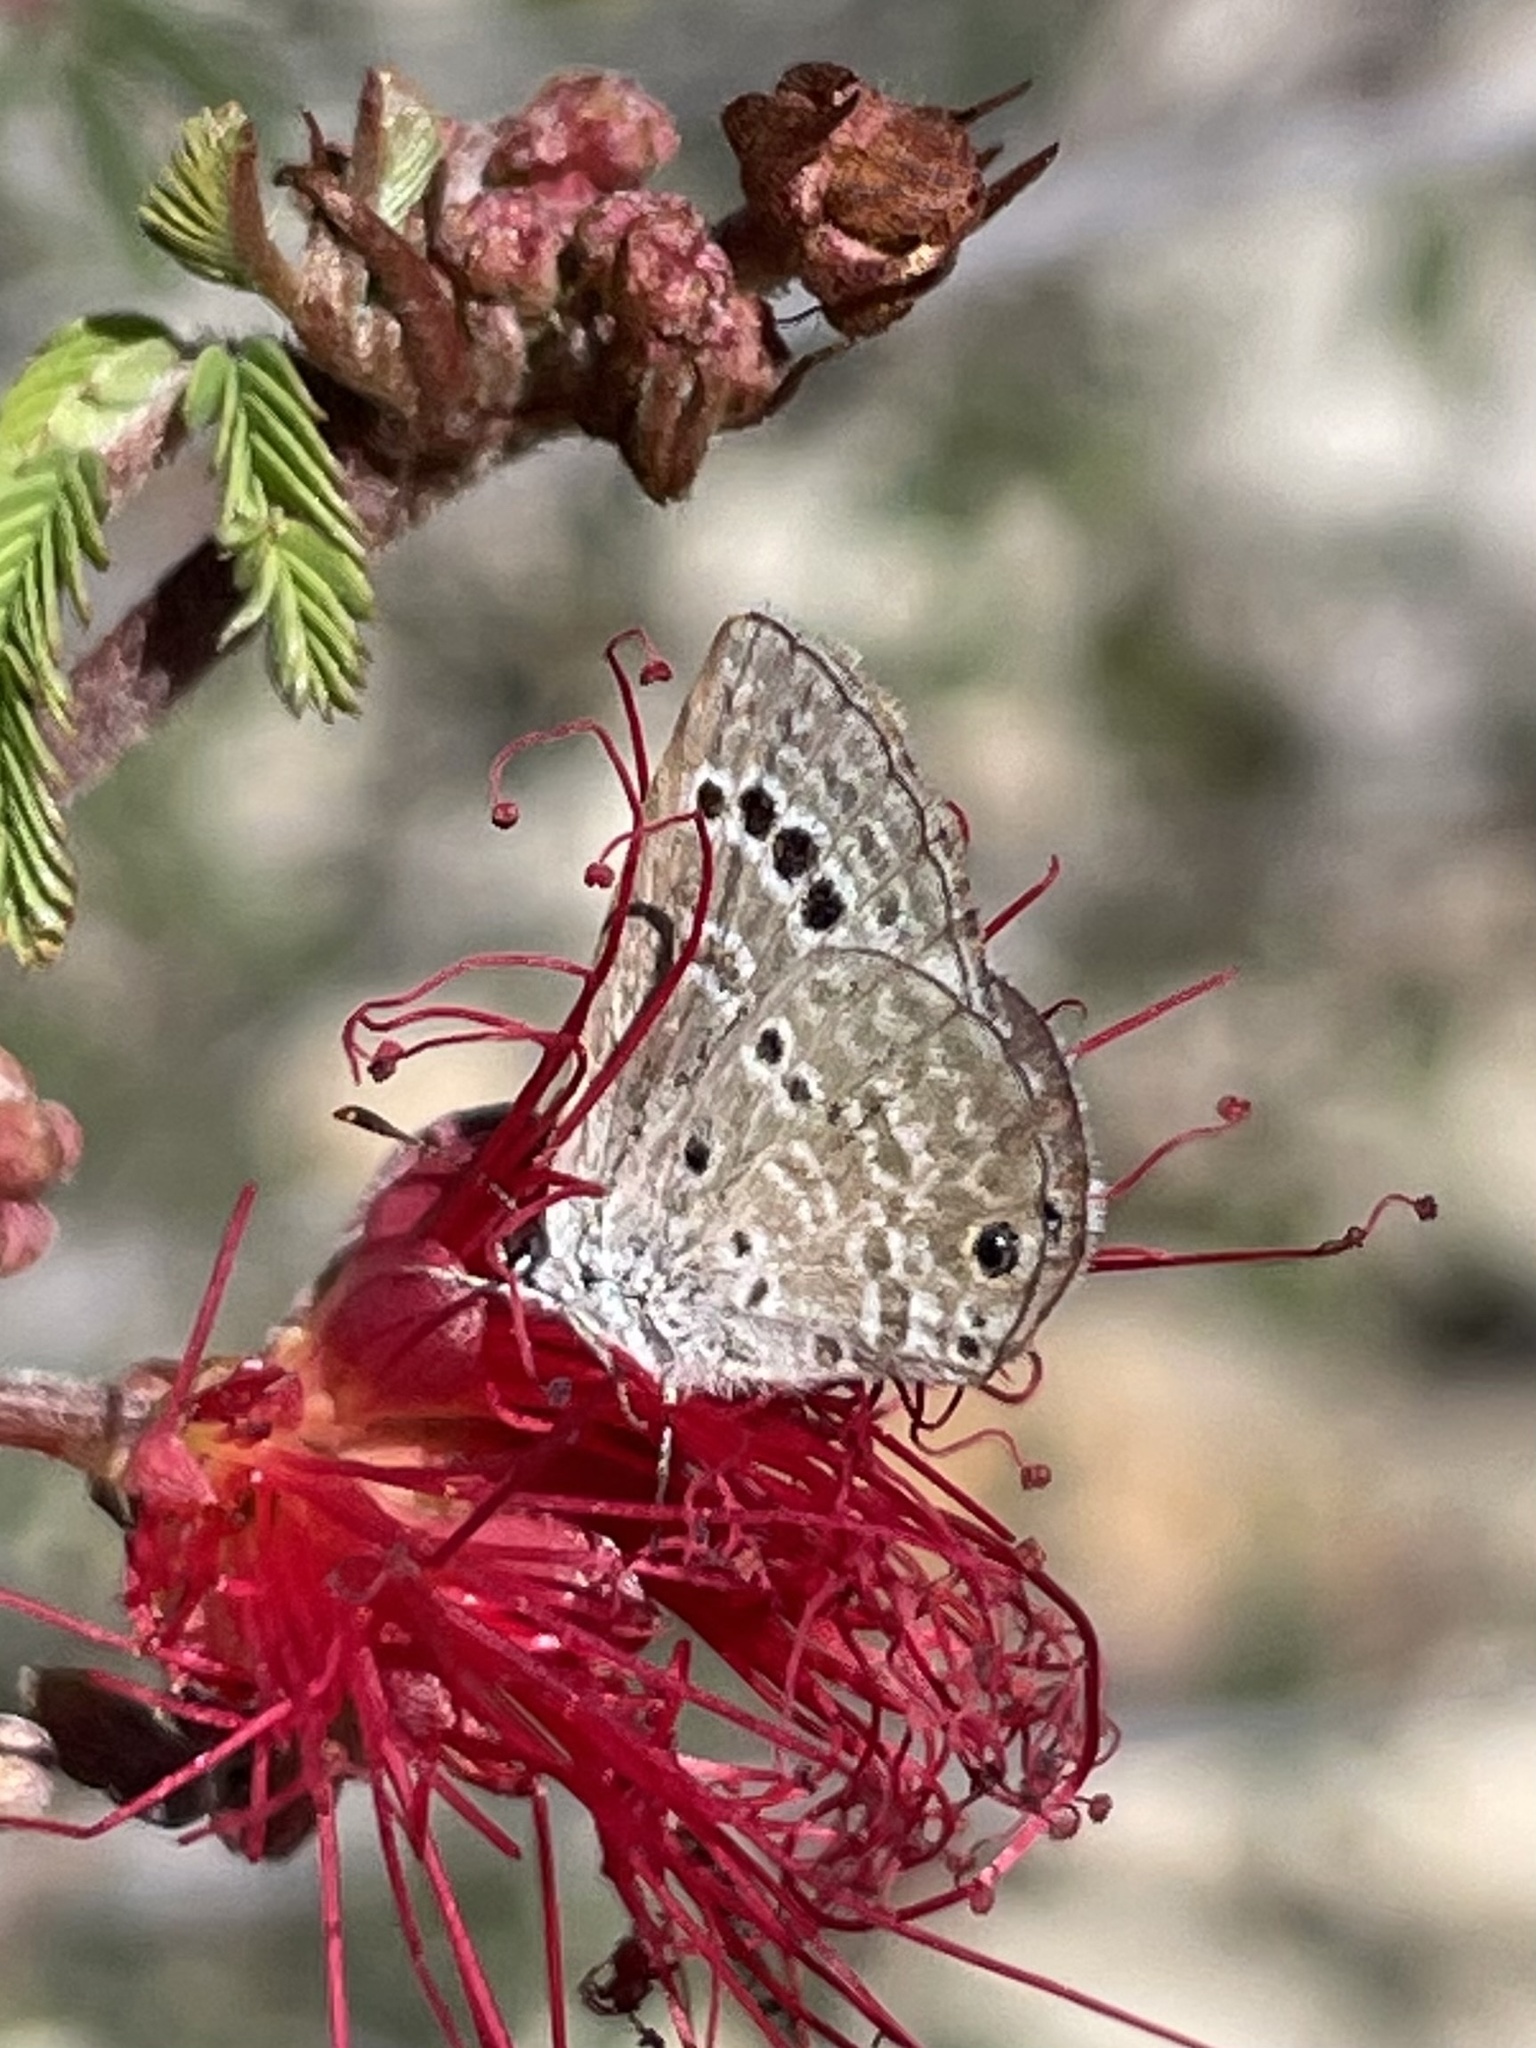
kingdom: Animalia
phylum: Arthropoda
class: Insecta
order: Lepidoptera
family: Lycaenidae
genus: Echinargus
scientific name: Echinargus isola
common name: Reakirt's blue
